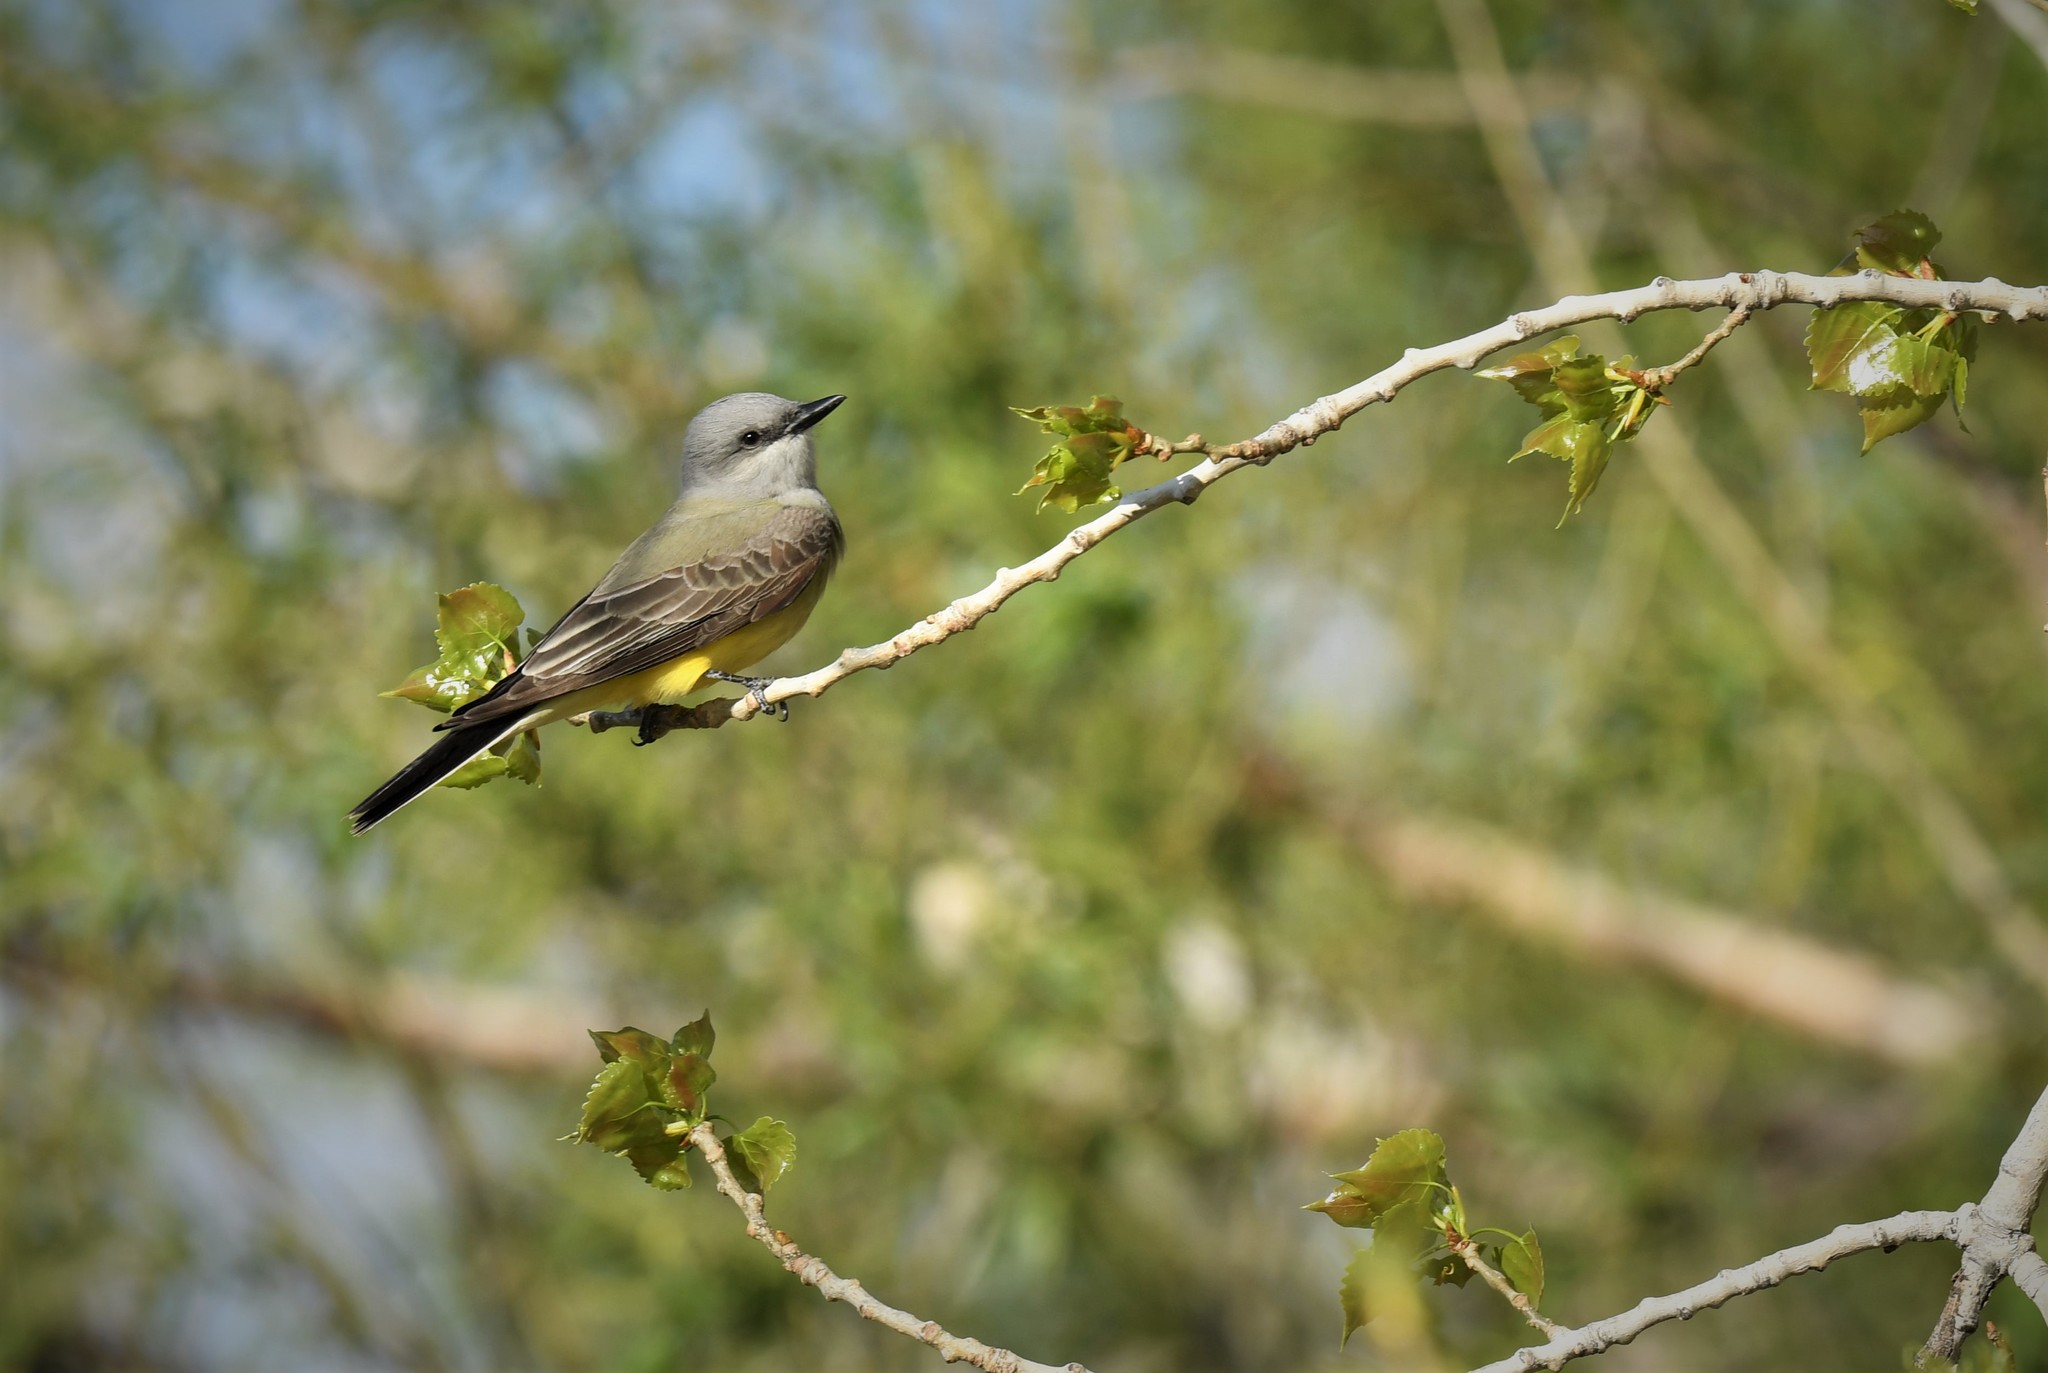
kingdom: Animalia
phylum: Chordata
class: Aves
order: Passeriformes
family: Tyrannidae
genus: Tyrannus
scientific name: Tyrannus verticalis
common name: Western kingbird
